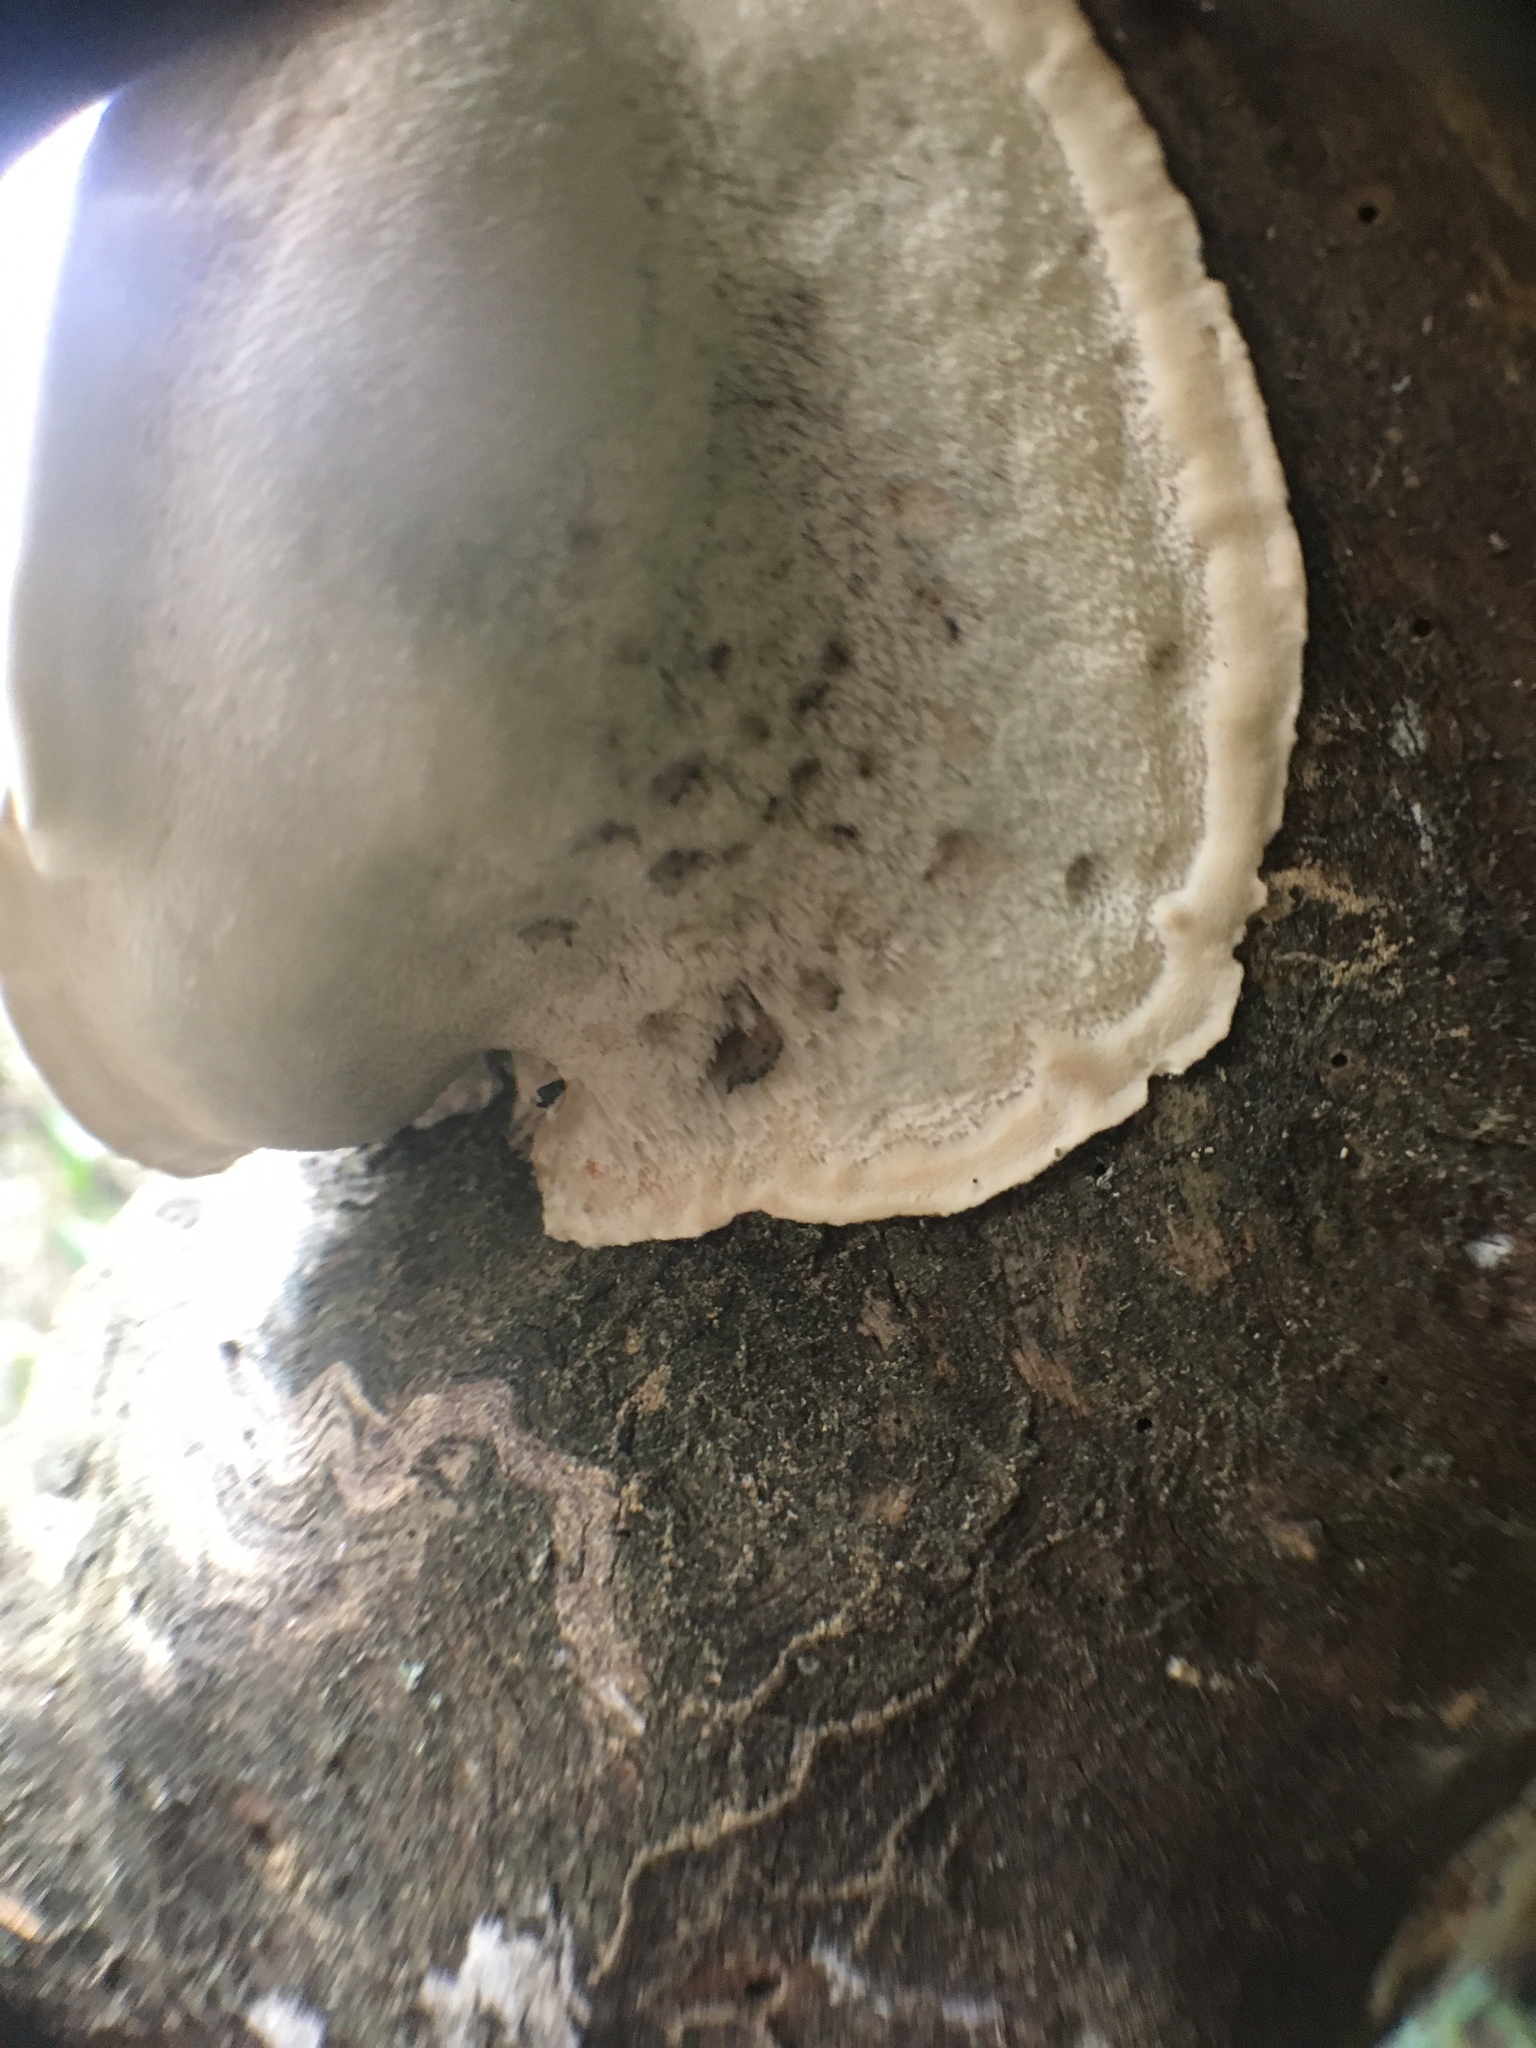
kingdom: Fungi
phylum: Basidiomycota
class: Agaricomycetes
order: Polyporales
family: Polyporaceae
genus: Cyanosporus
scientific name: Cyanosporus caesius
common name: Blue cheese polypore
